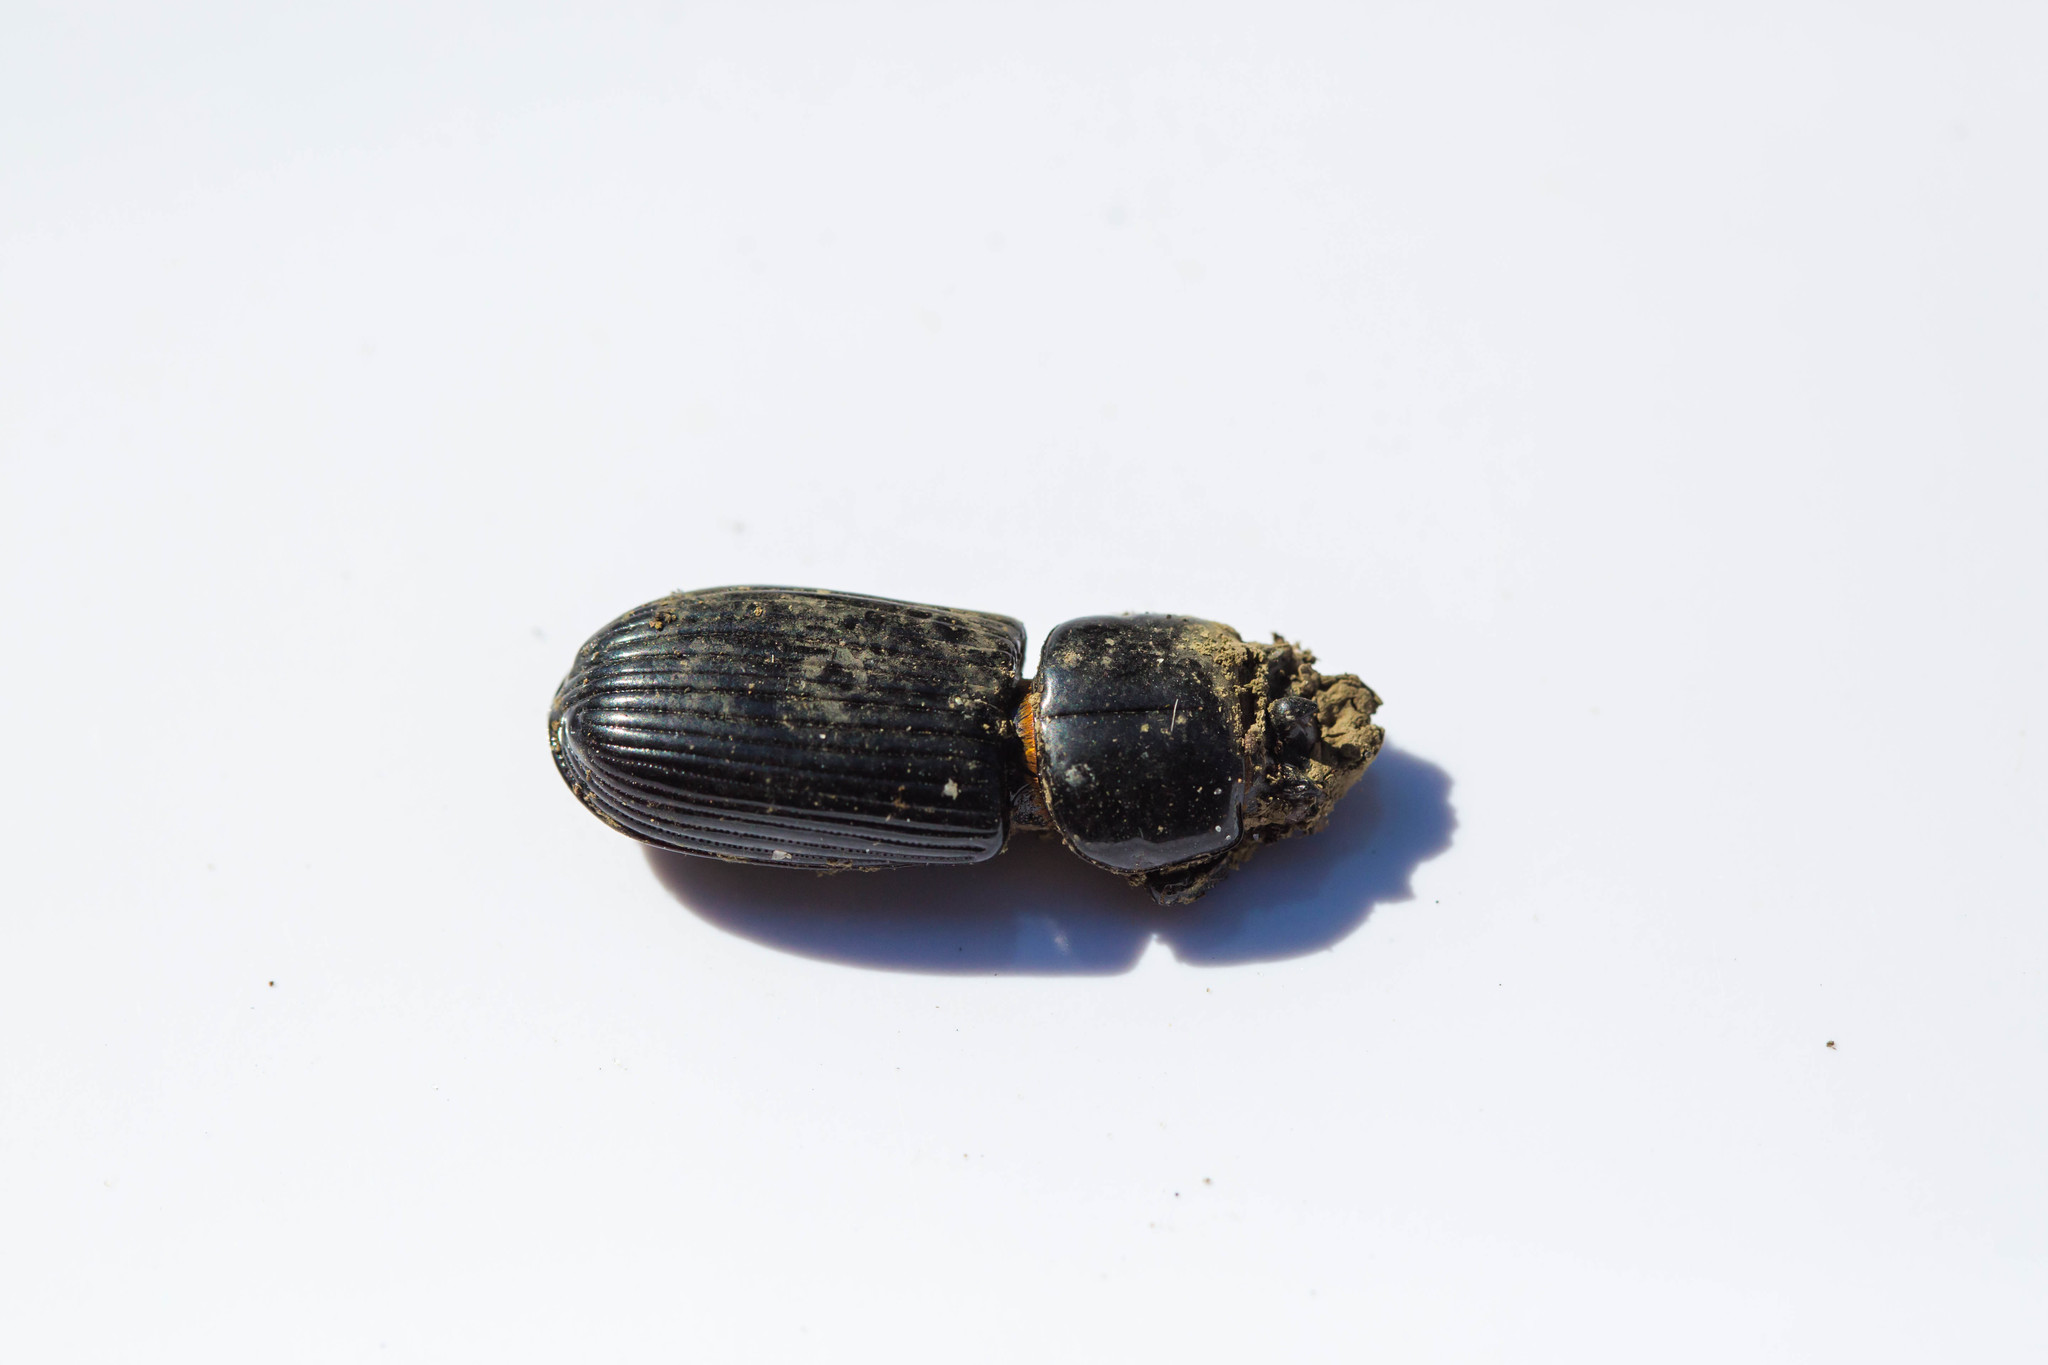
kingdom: Animalia
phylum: Arthropoda
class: Insecta
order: Coleoptera
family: Passalidae
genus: Odontotaenius
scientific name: Odontotaenius disjunctus
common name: Patent leather beetle
